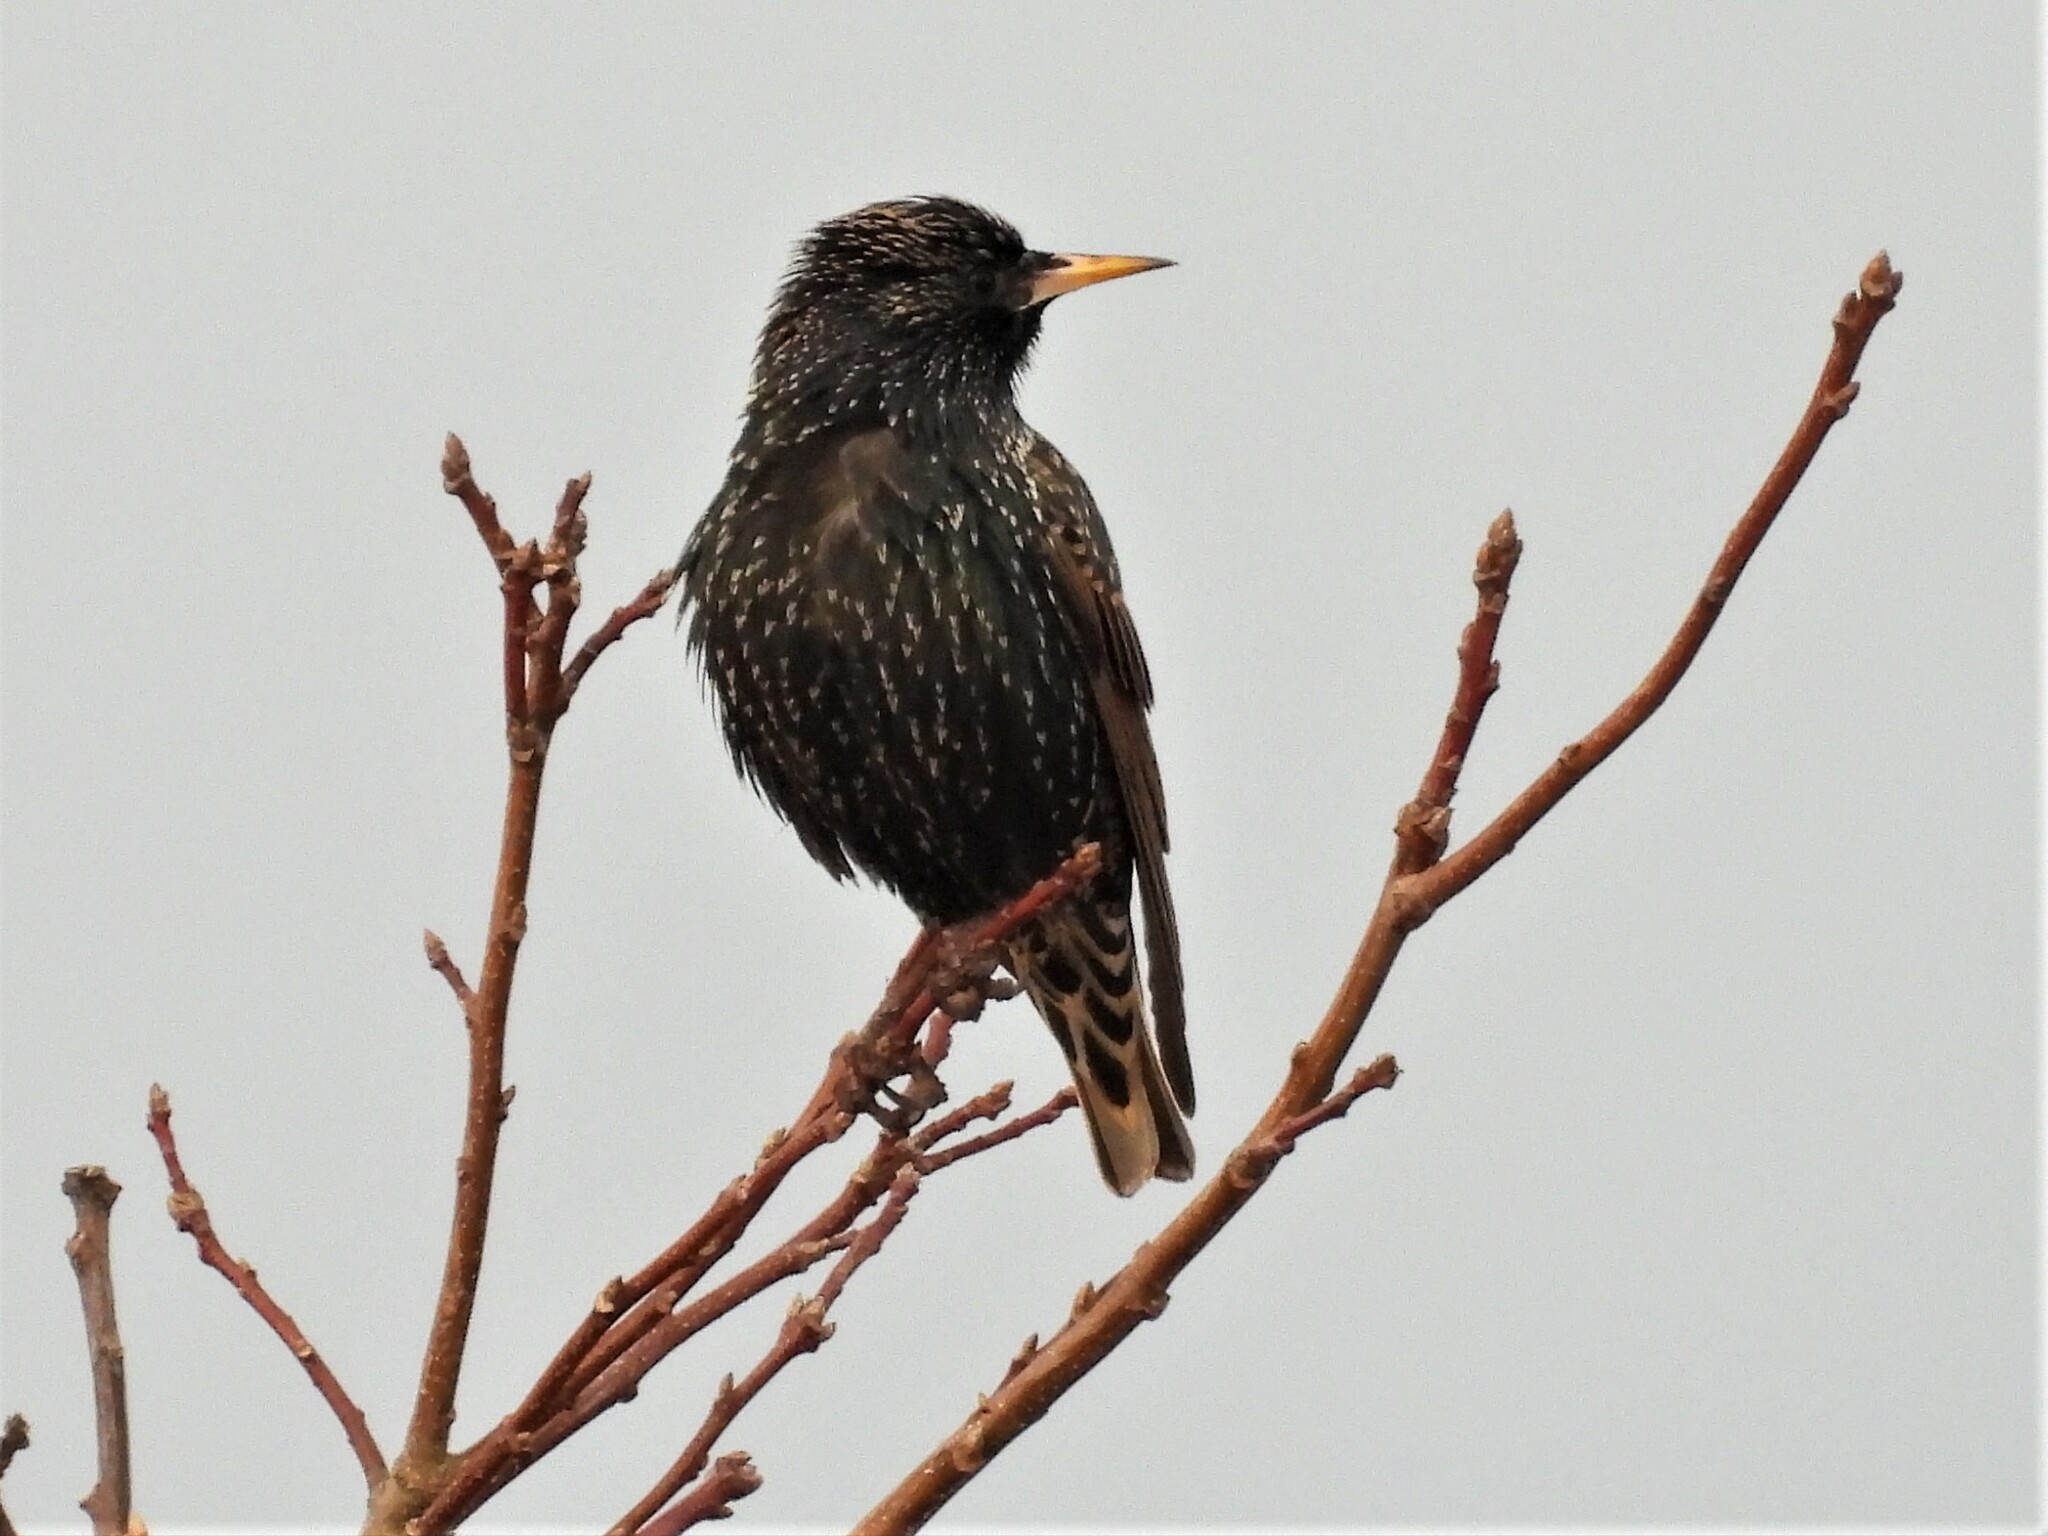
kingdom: Animalia
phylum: Chordata
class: Aves
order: Passeriformes
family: Sturnidae
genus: Sturnus
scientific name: Sturnus vulgaris
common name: Common starling
